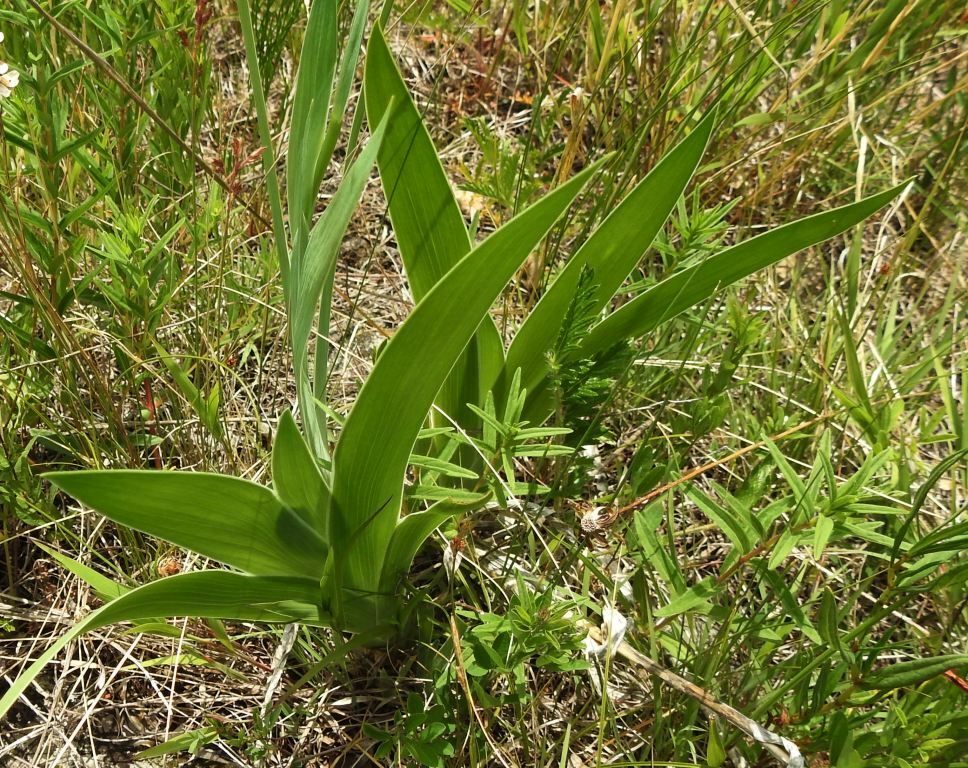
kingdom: Plantae
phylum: Tracheophyta
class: Liliopsida
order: Asparagales
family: Iridaceae
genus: Iris
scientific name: Iris dichotoma
